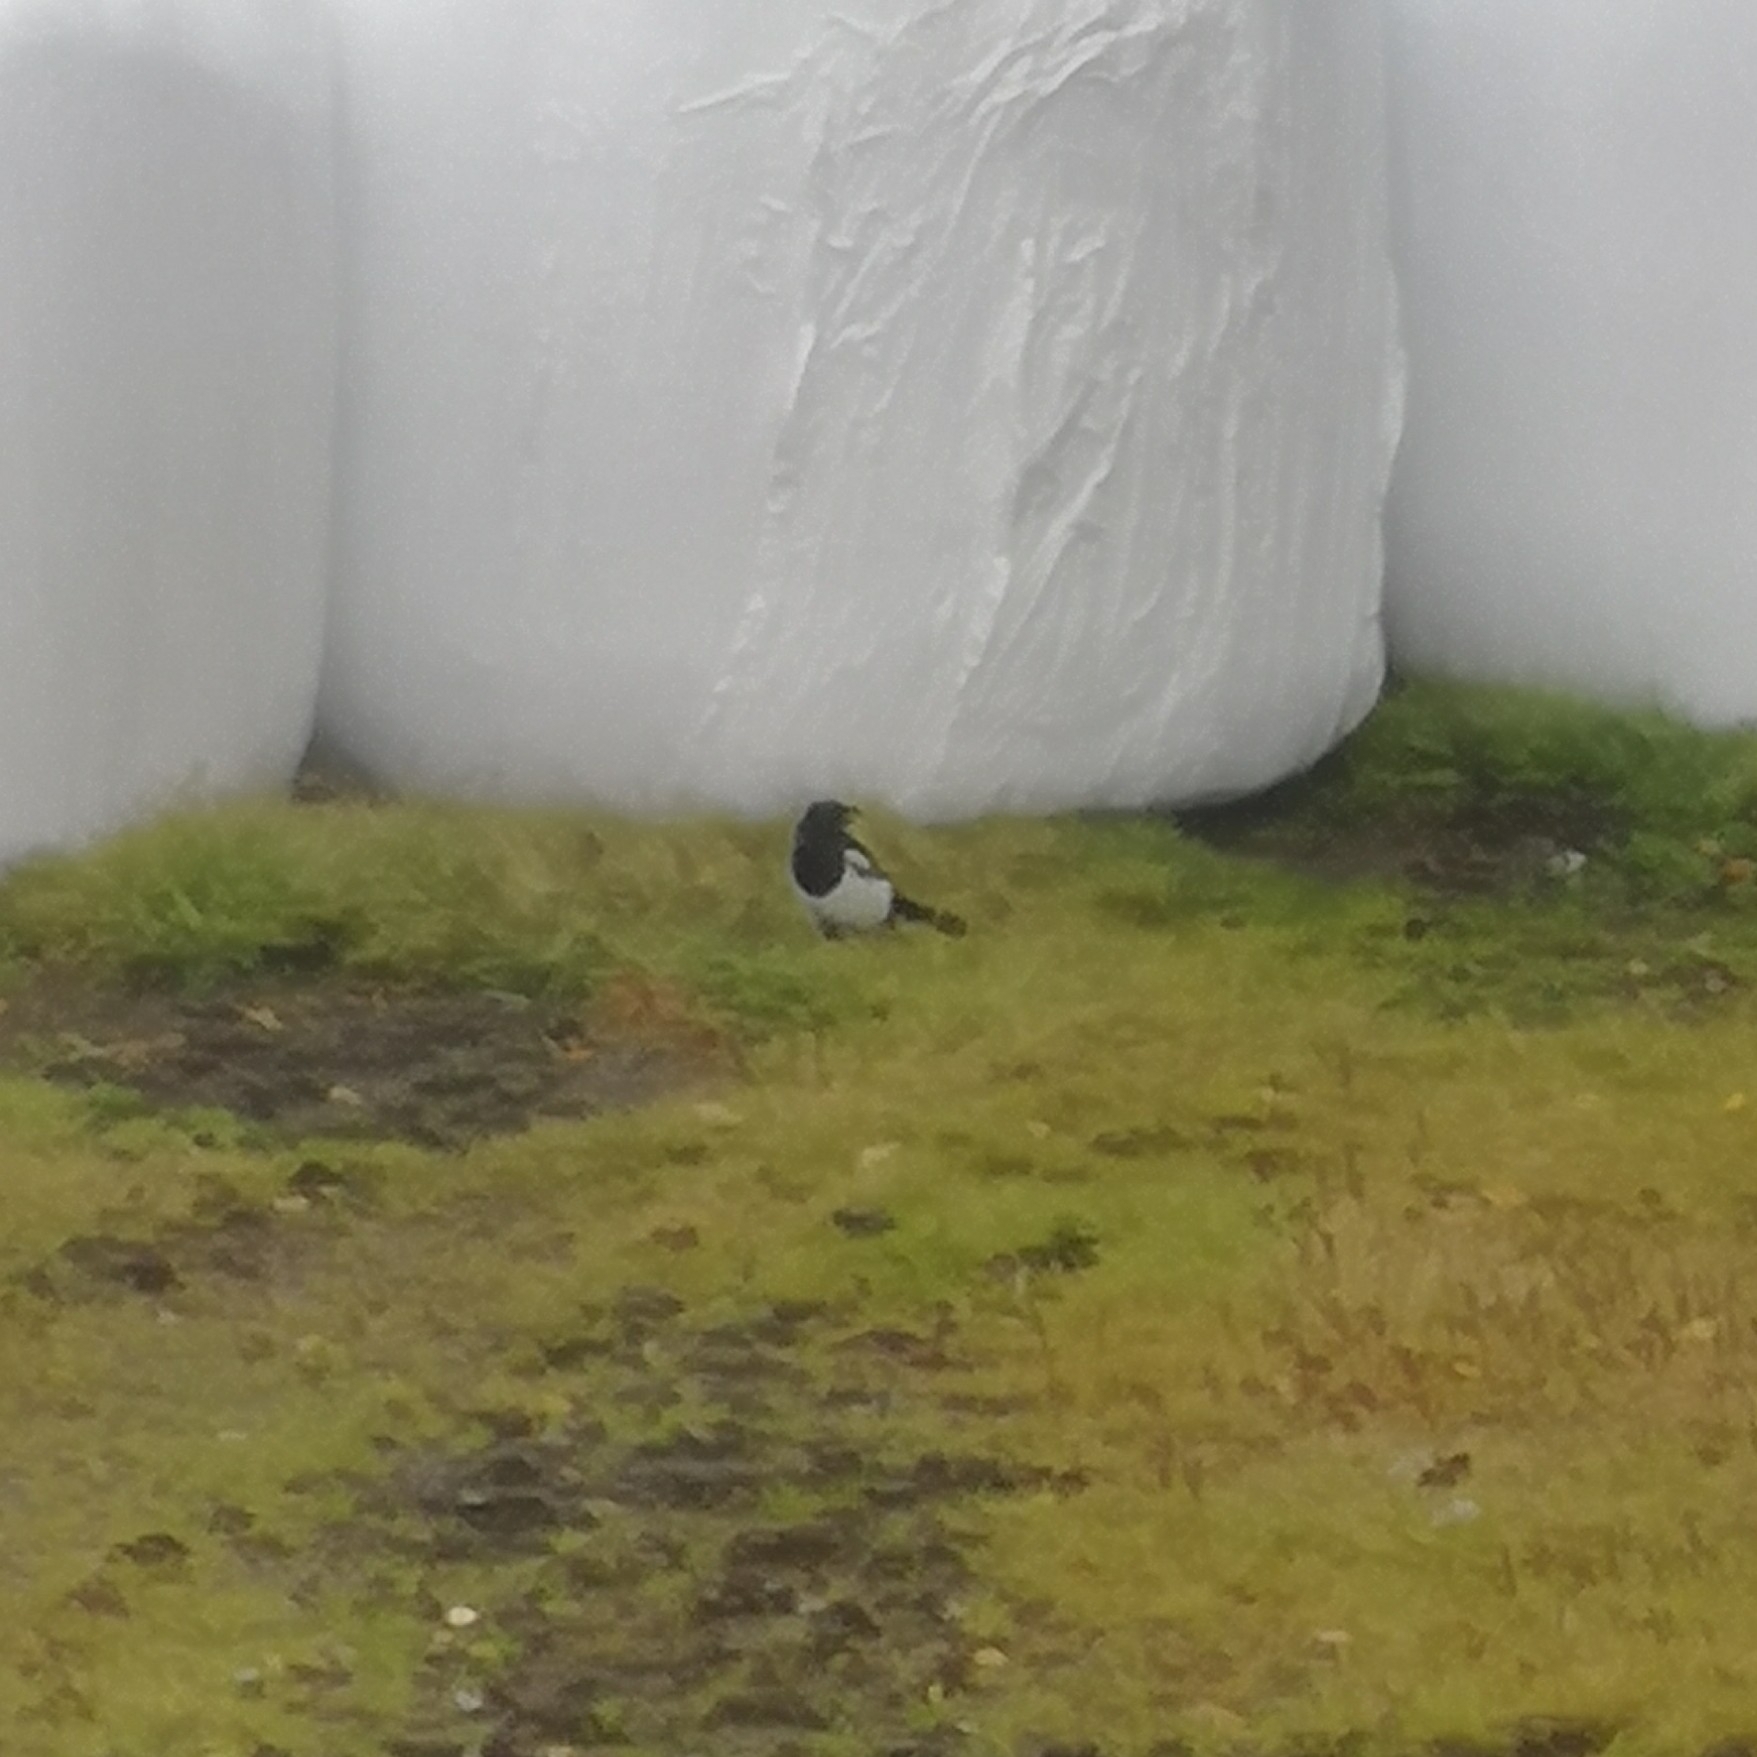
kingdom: Animalia
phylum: Chordata
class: Aves
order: Passeriformes
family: Corvidae
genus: Pica
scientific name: Pica pica
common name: Eurasian magpie
